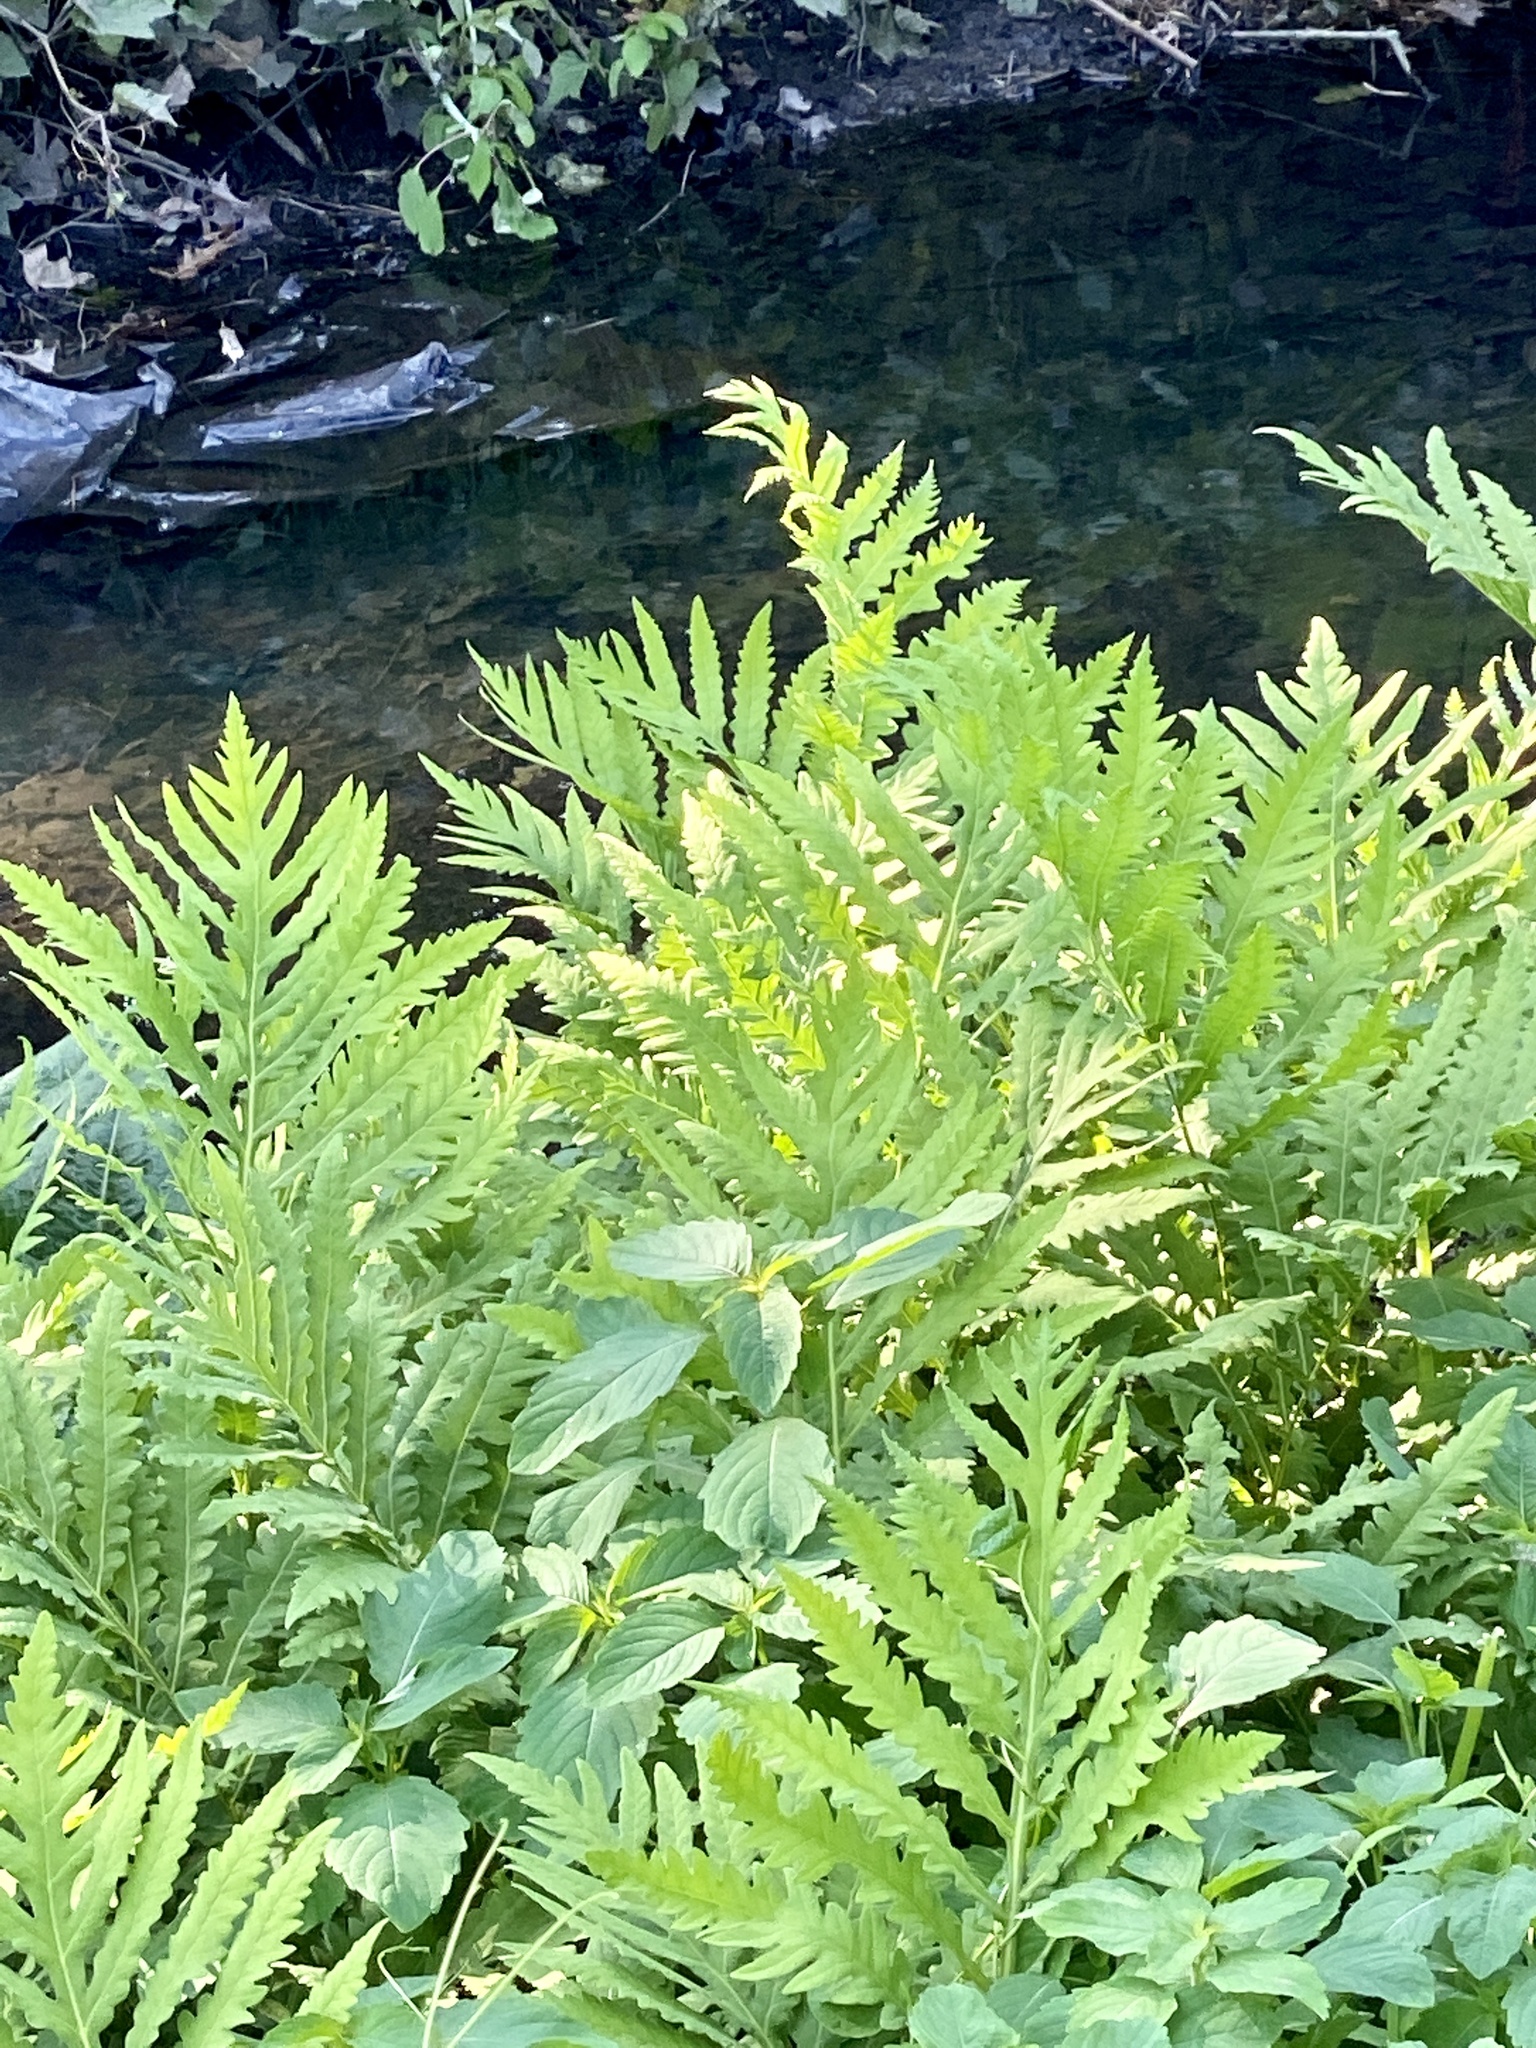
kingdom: Plantae
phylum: Tracheophyta
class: Polypodiopsida
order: Polypodiales
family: Onocleaceae
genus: Onoclea
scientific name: Onoclea sensibilis
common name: Sensitive fern
